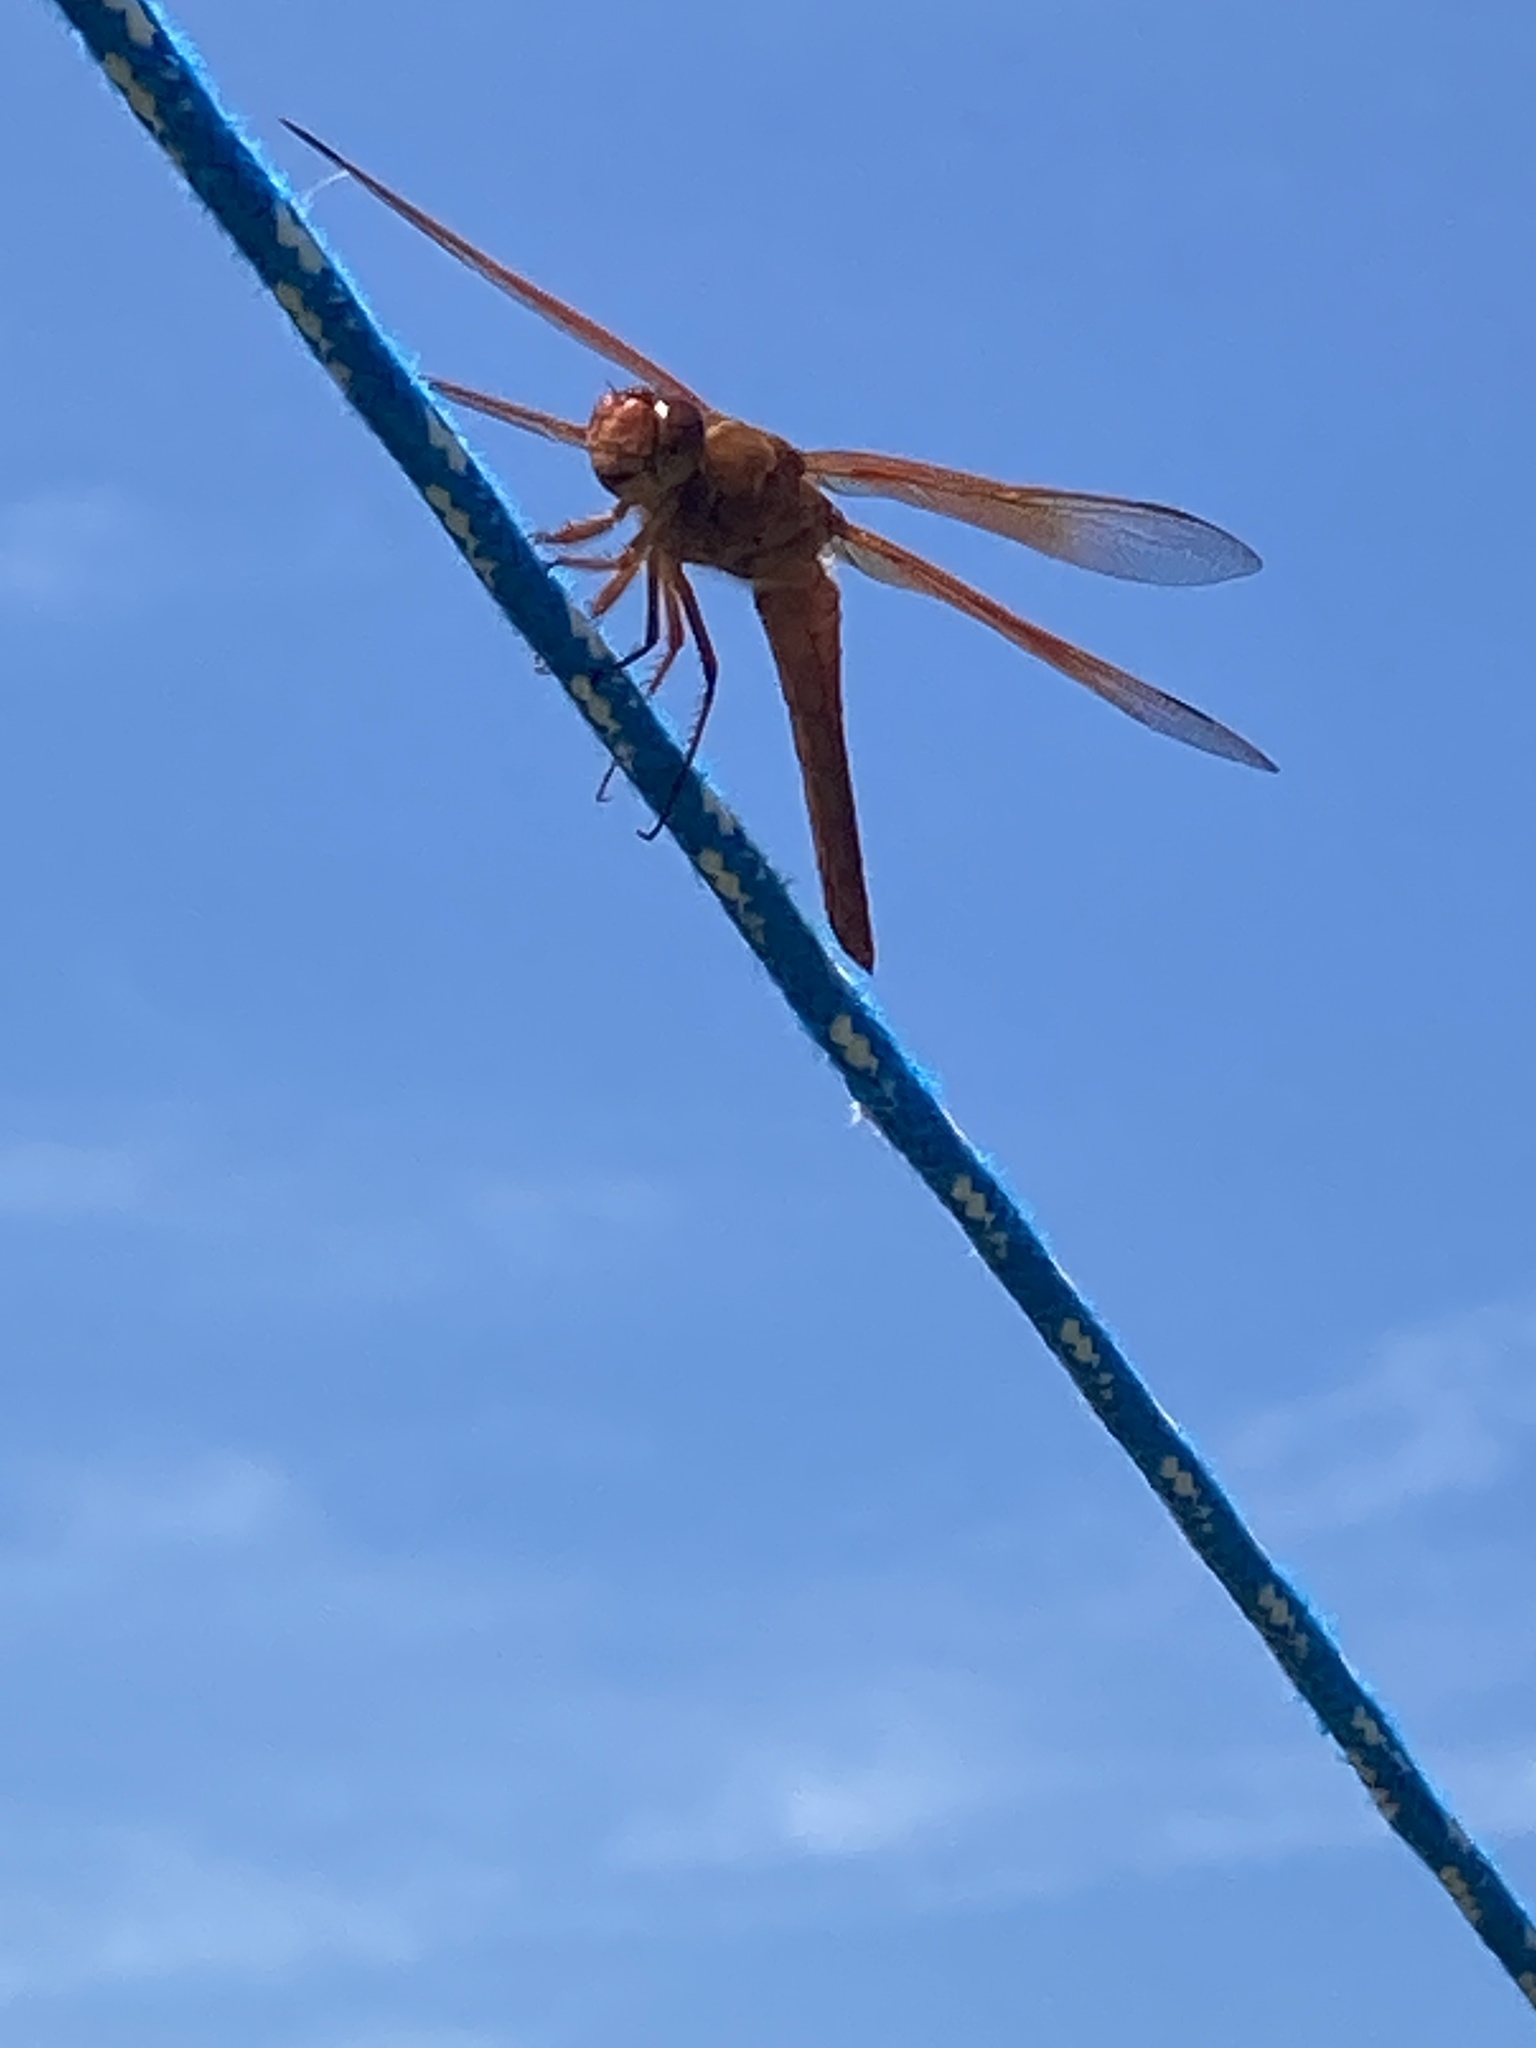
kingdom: Animalia
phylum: Arthropoda
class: Insecta
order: Odonata
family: Libellulidae
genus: Libellula
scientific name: Libellula saturata
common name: Flame skimmer
